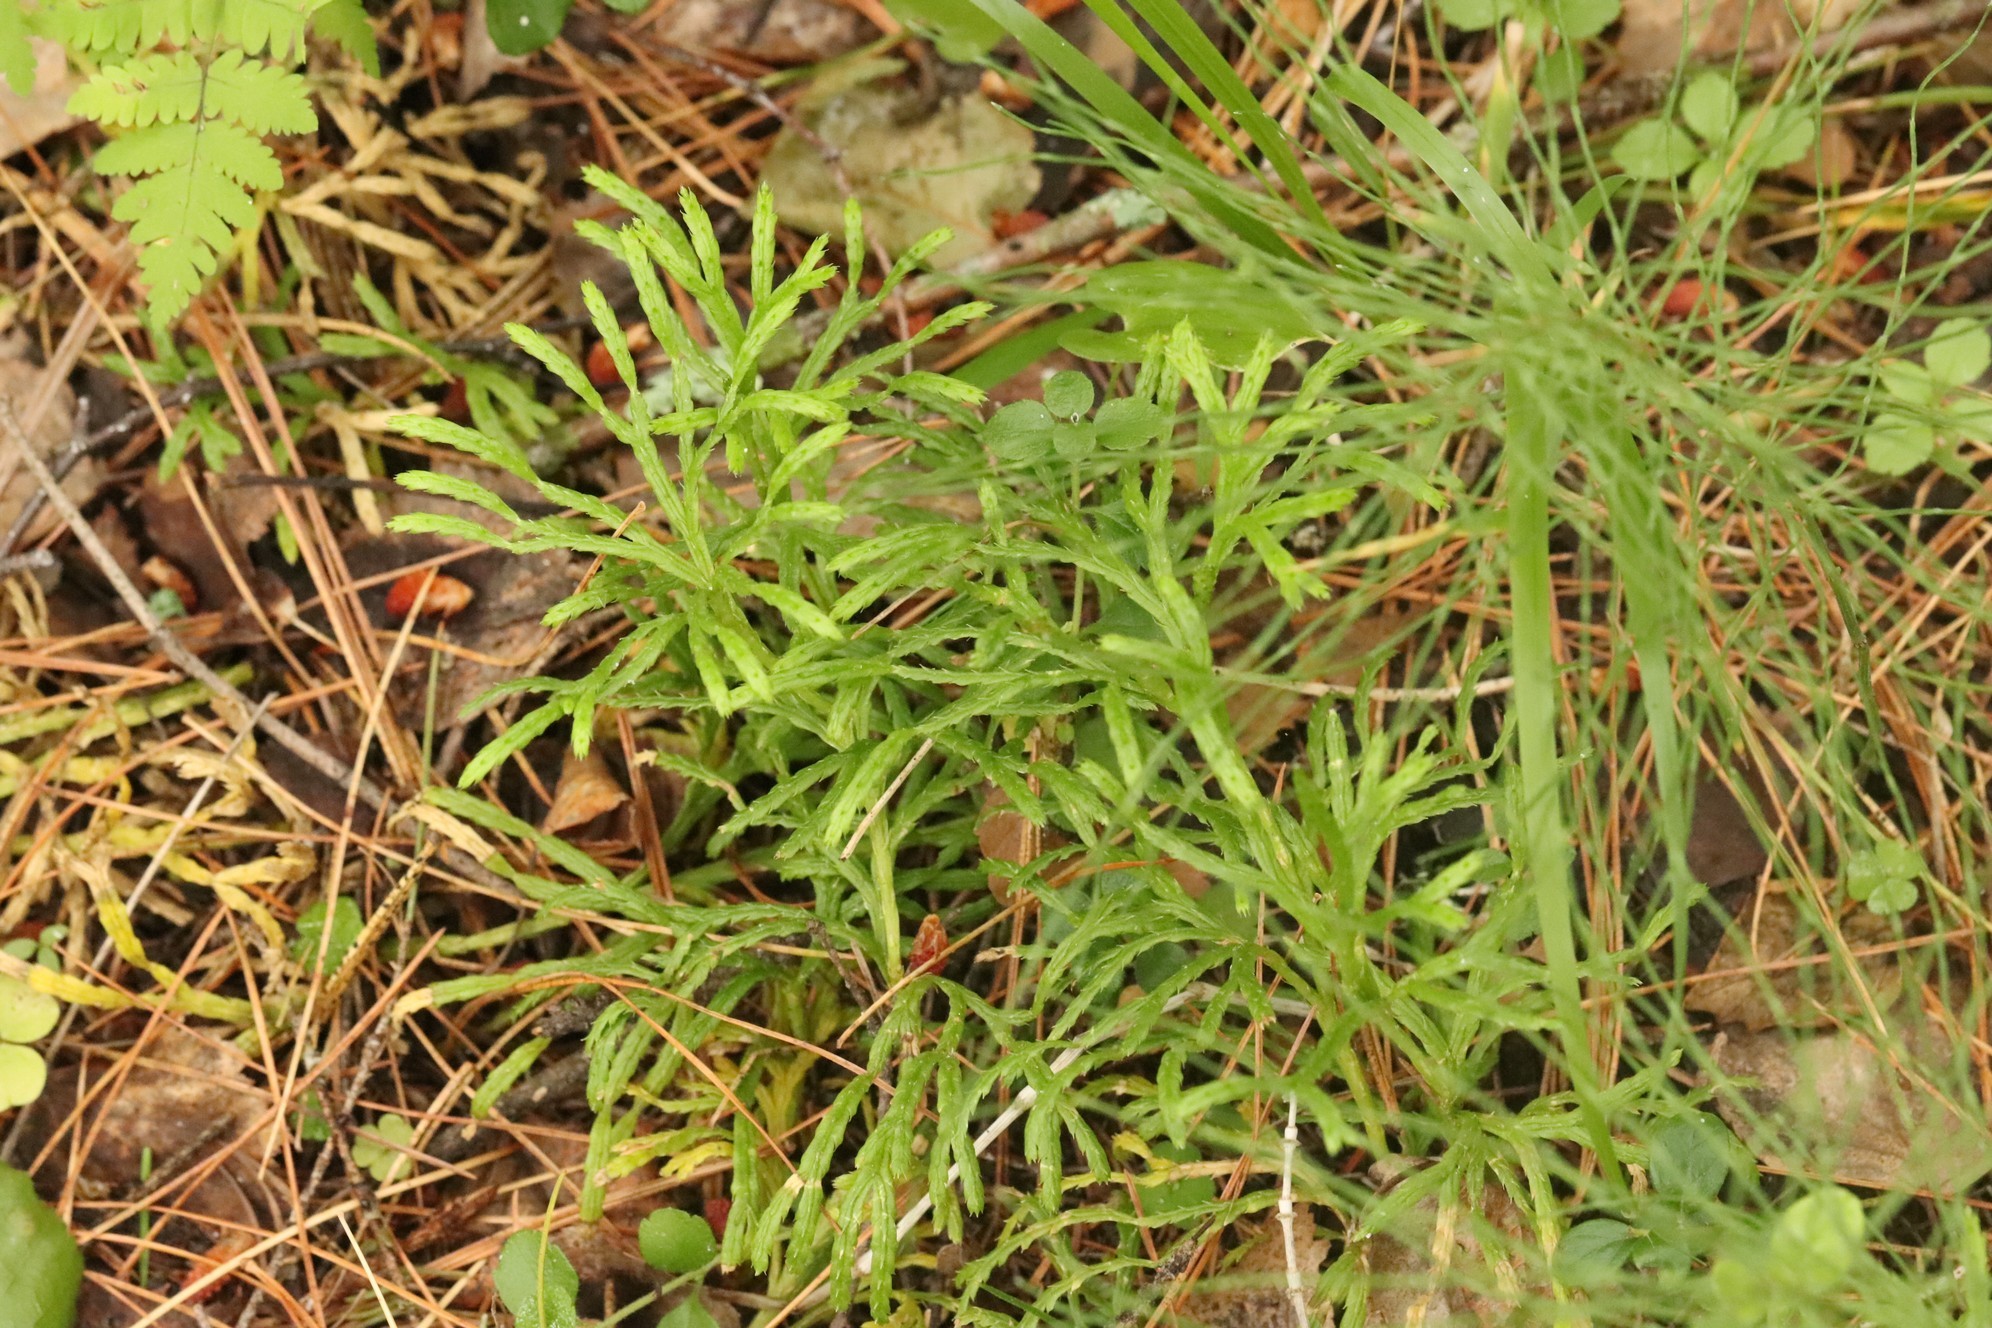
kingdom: Plantae
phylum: Tracheophyta
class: Lycopodiopsida
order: Lycopodiales
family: Lycopodiaceae
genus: Diphasiastrum
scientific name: Diphasiastrum complanatum
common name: Northern running-pine
